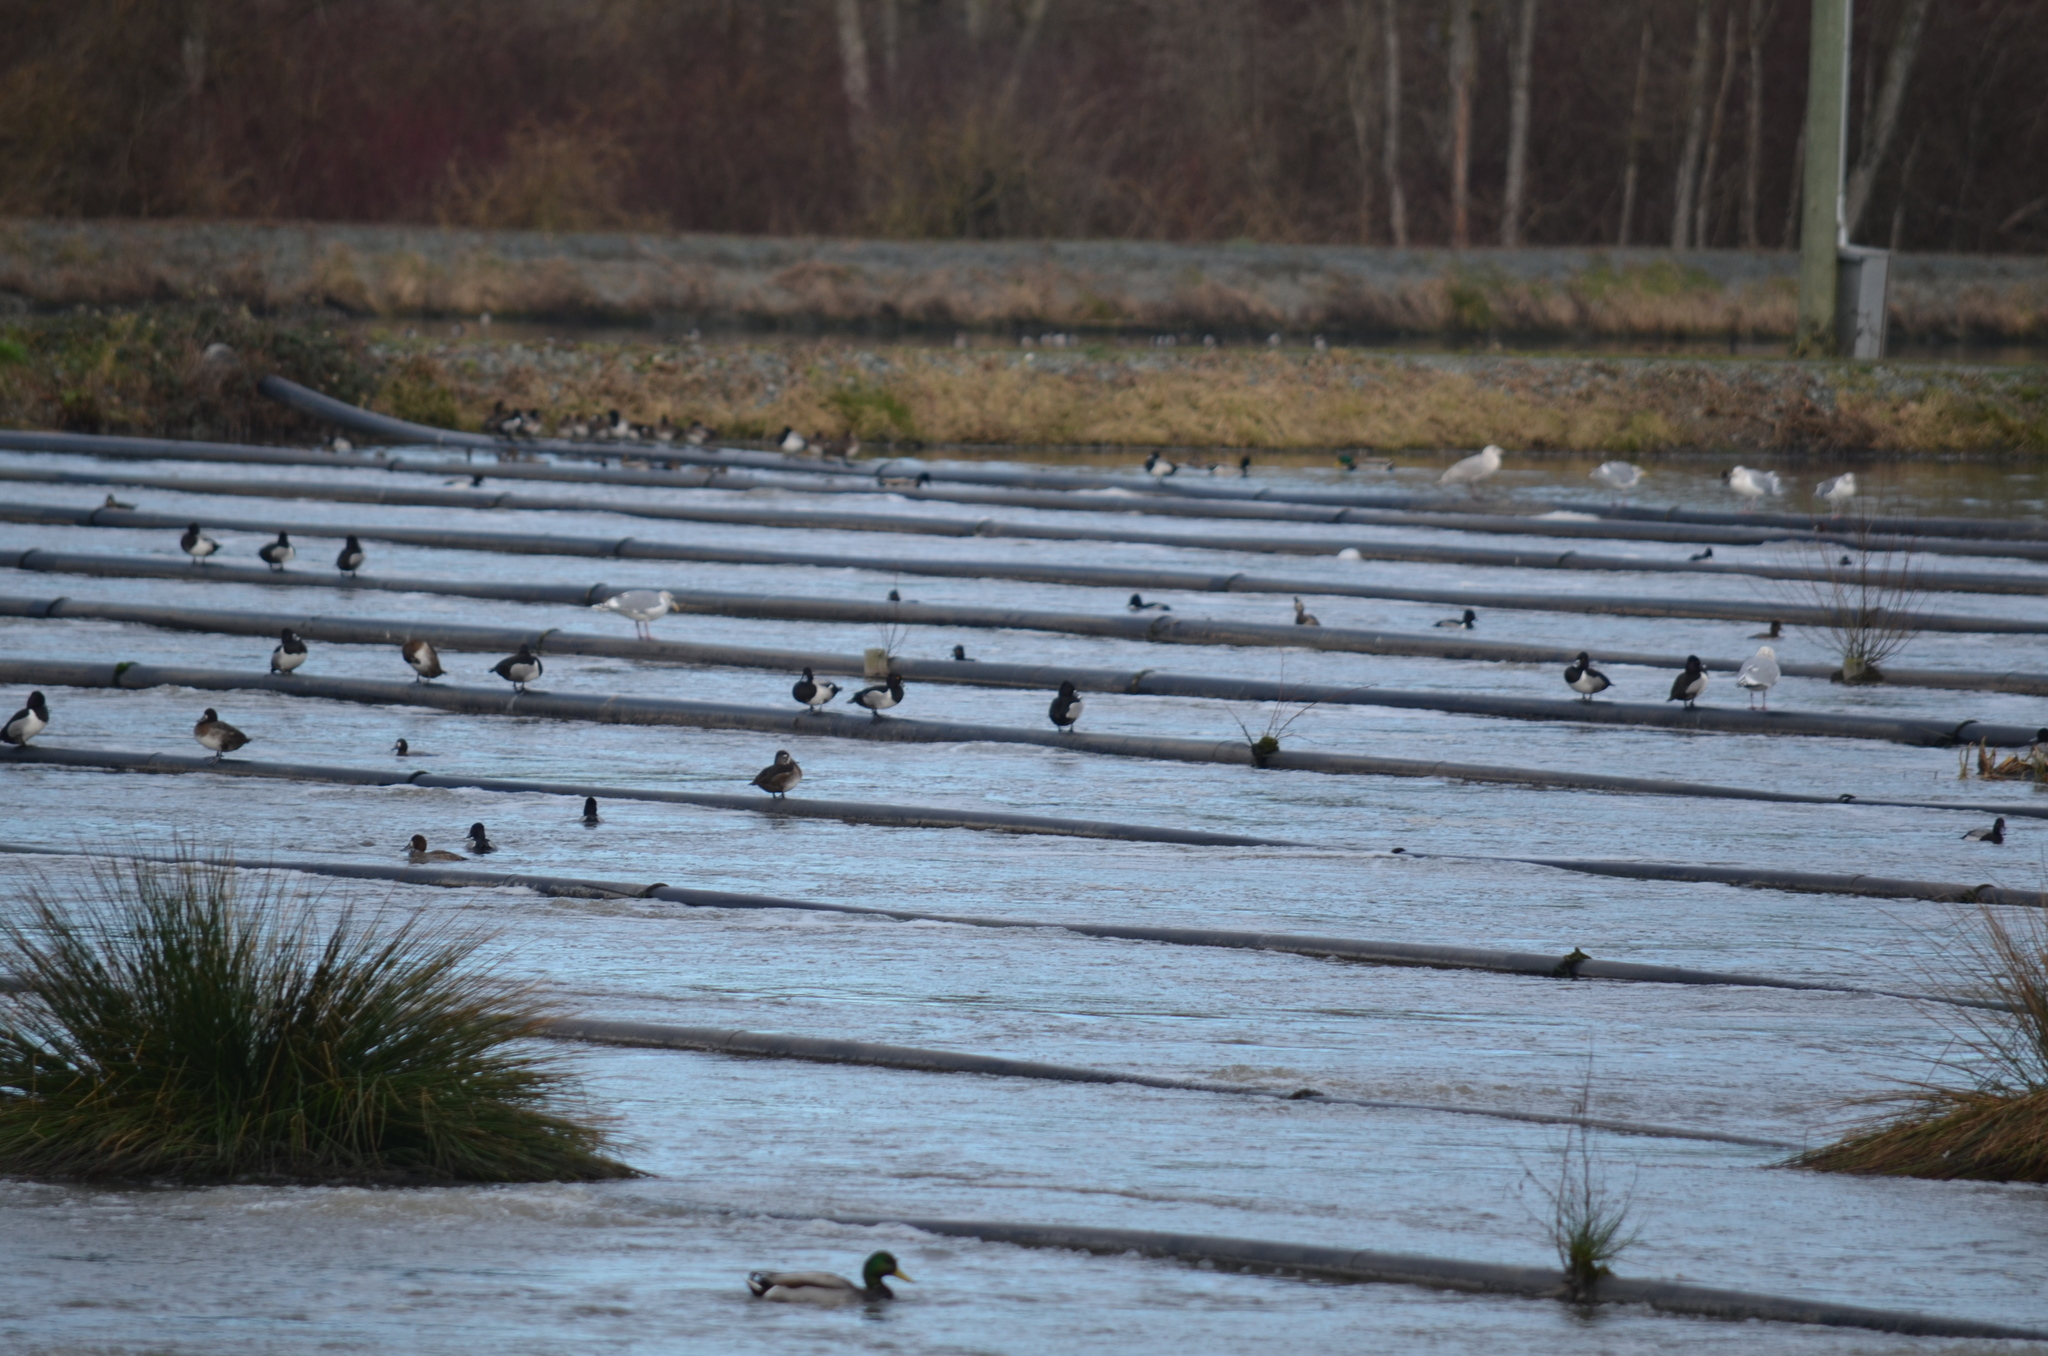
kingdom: Animalia
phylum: Chordata
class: Aves
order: Anseriformes
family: Anatidae
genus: Aythya
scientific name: Aythya collaris
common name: Ring-necked duck
